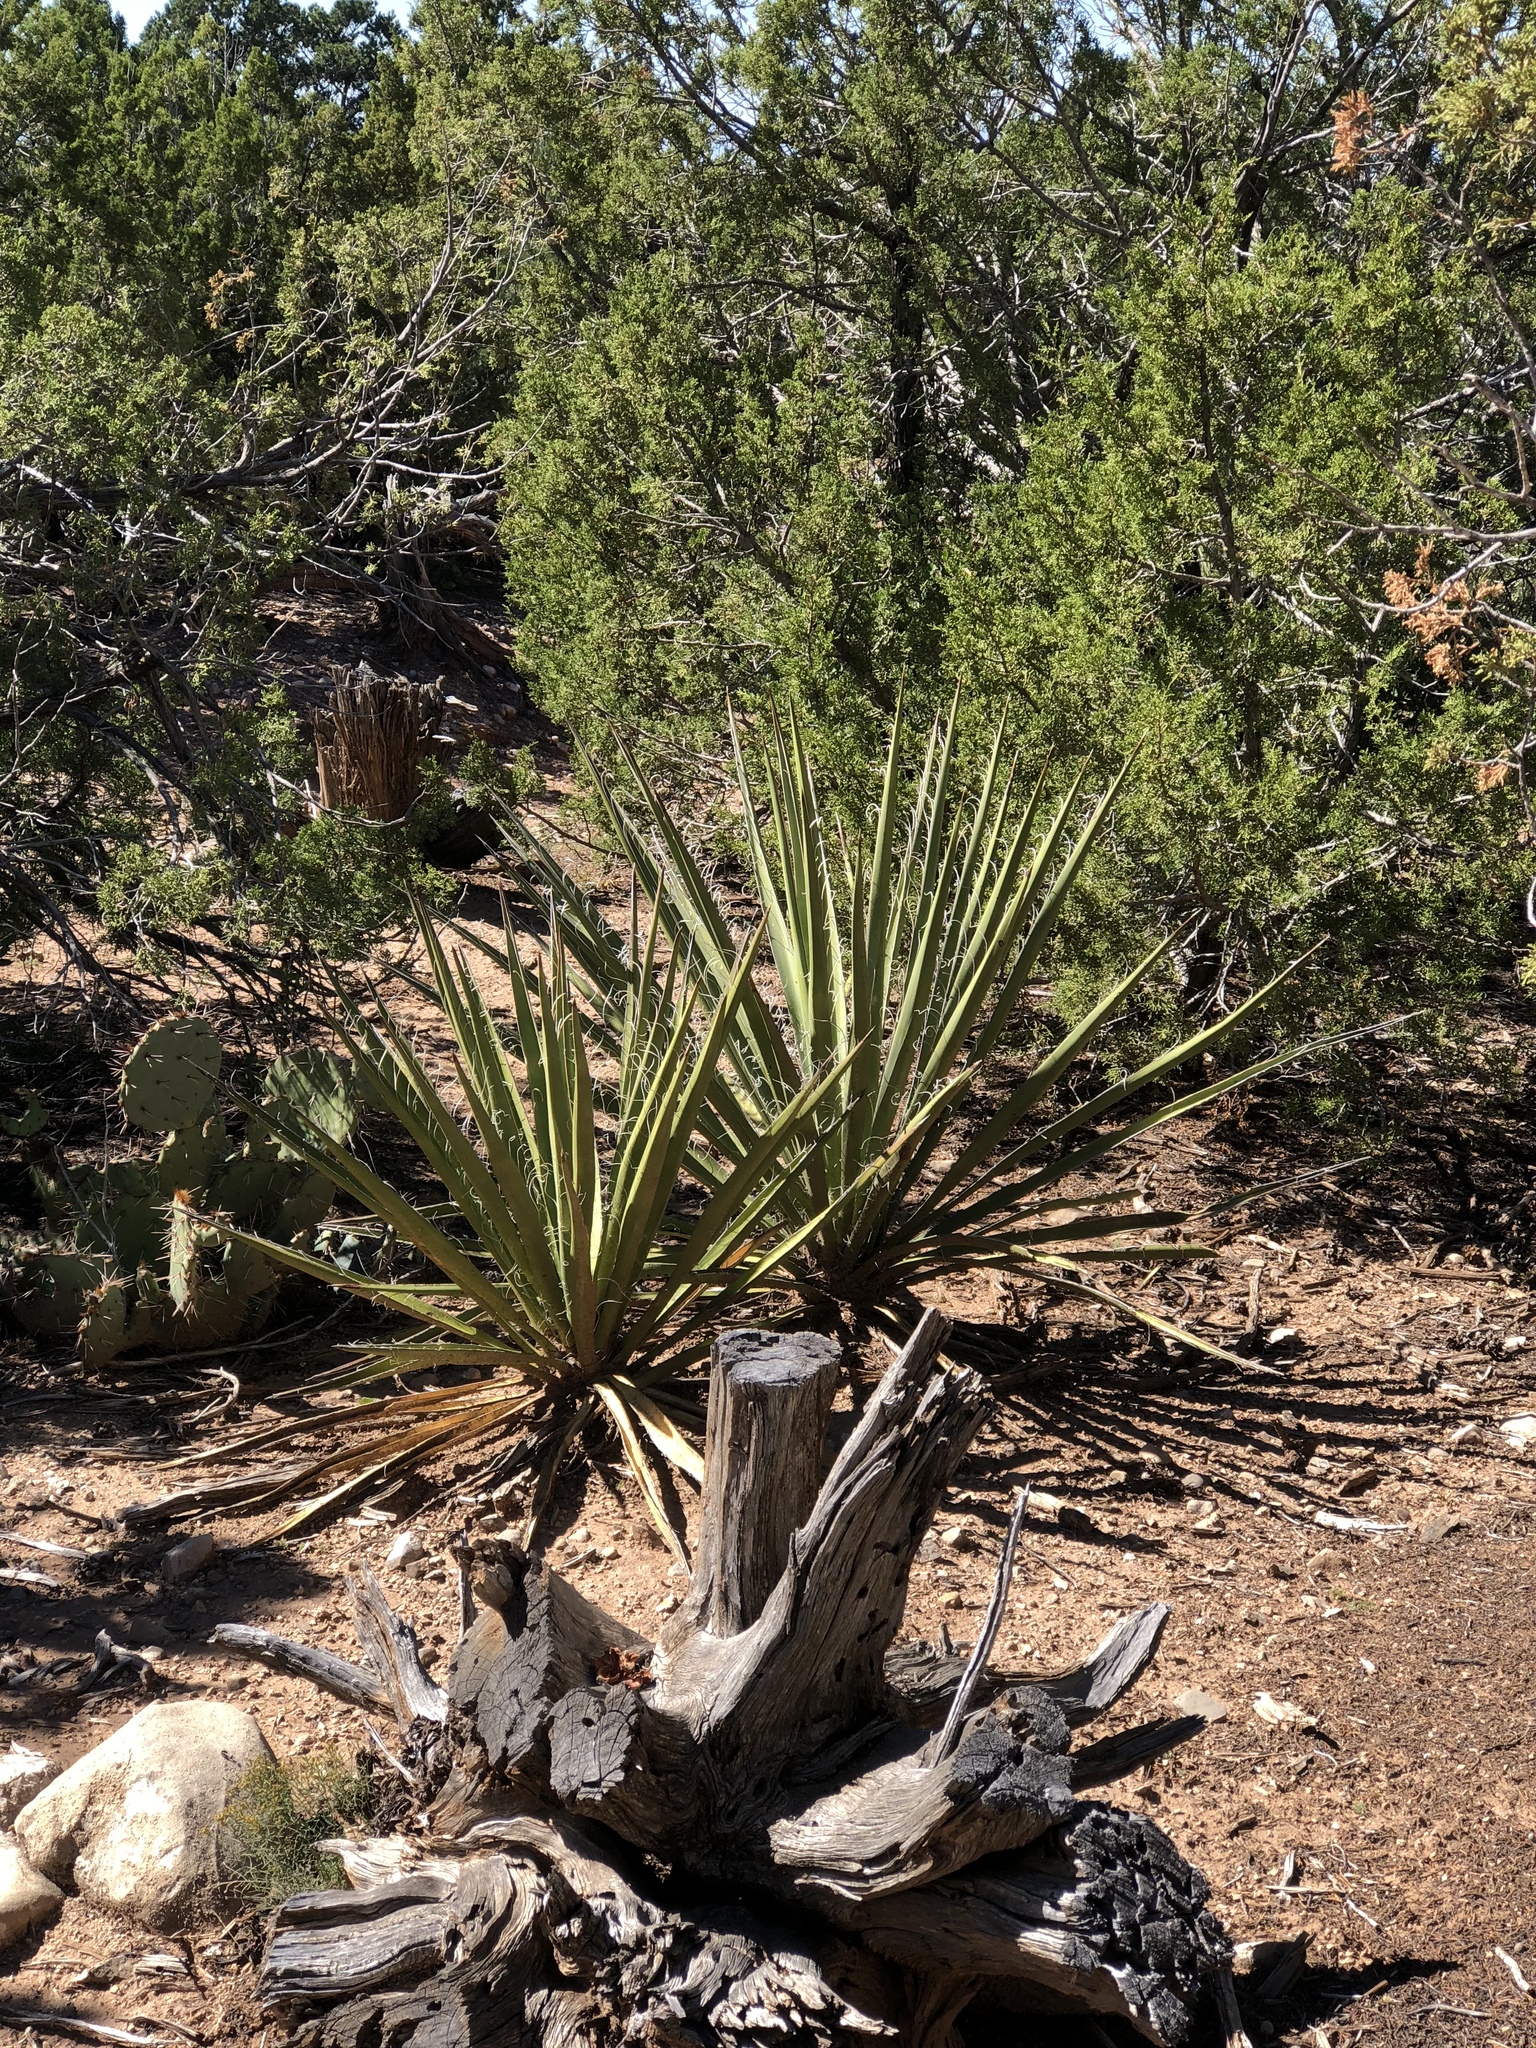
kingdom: Plantae
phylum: Tracheophyta
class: Liliopsida
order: Asparagales
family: Asparagaceae
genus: Yucca
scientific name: Yucca baccata
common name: Banana yucca
